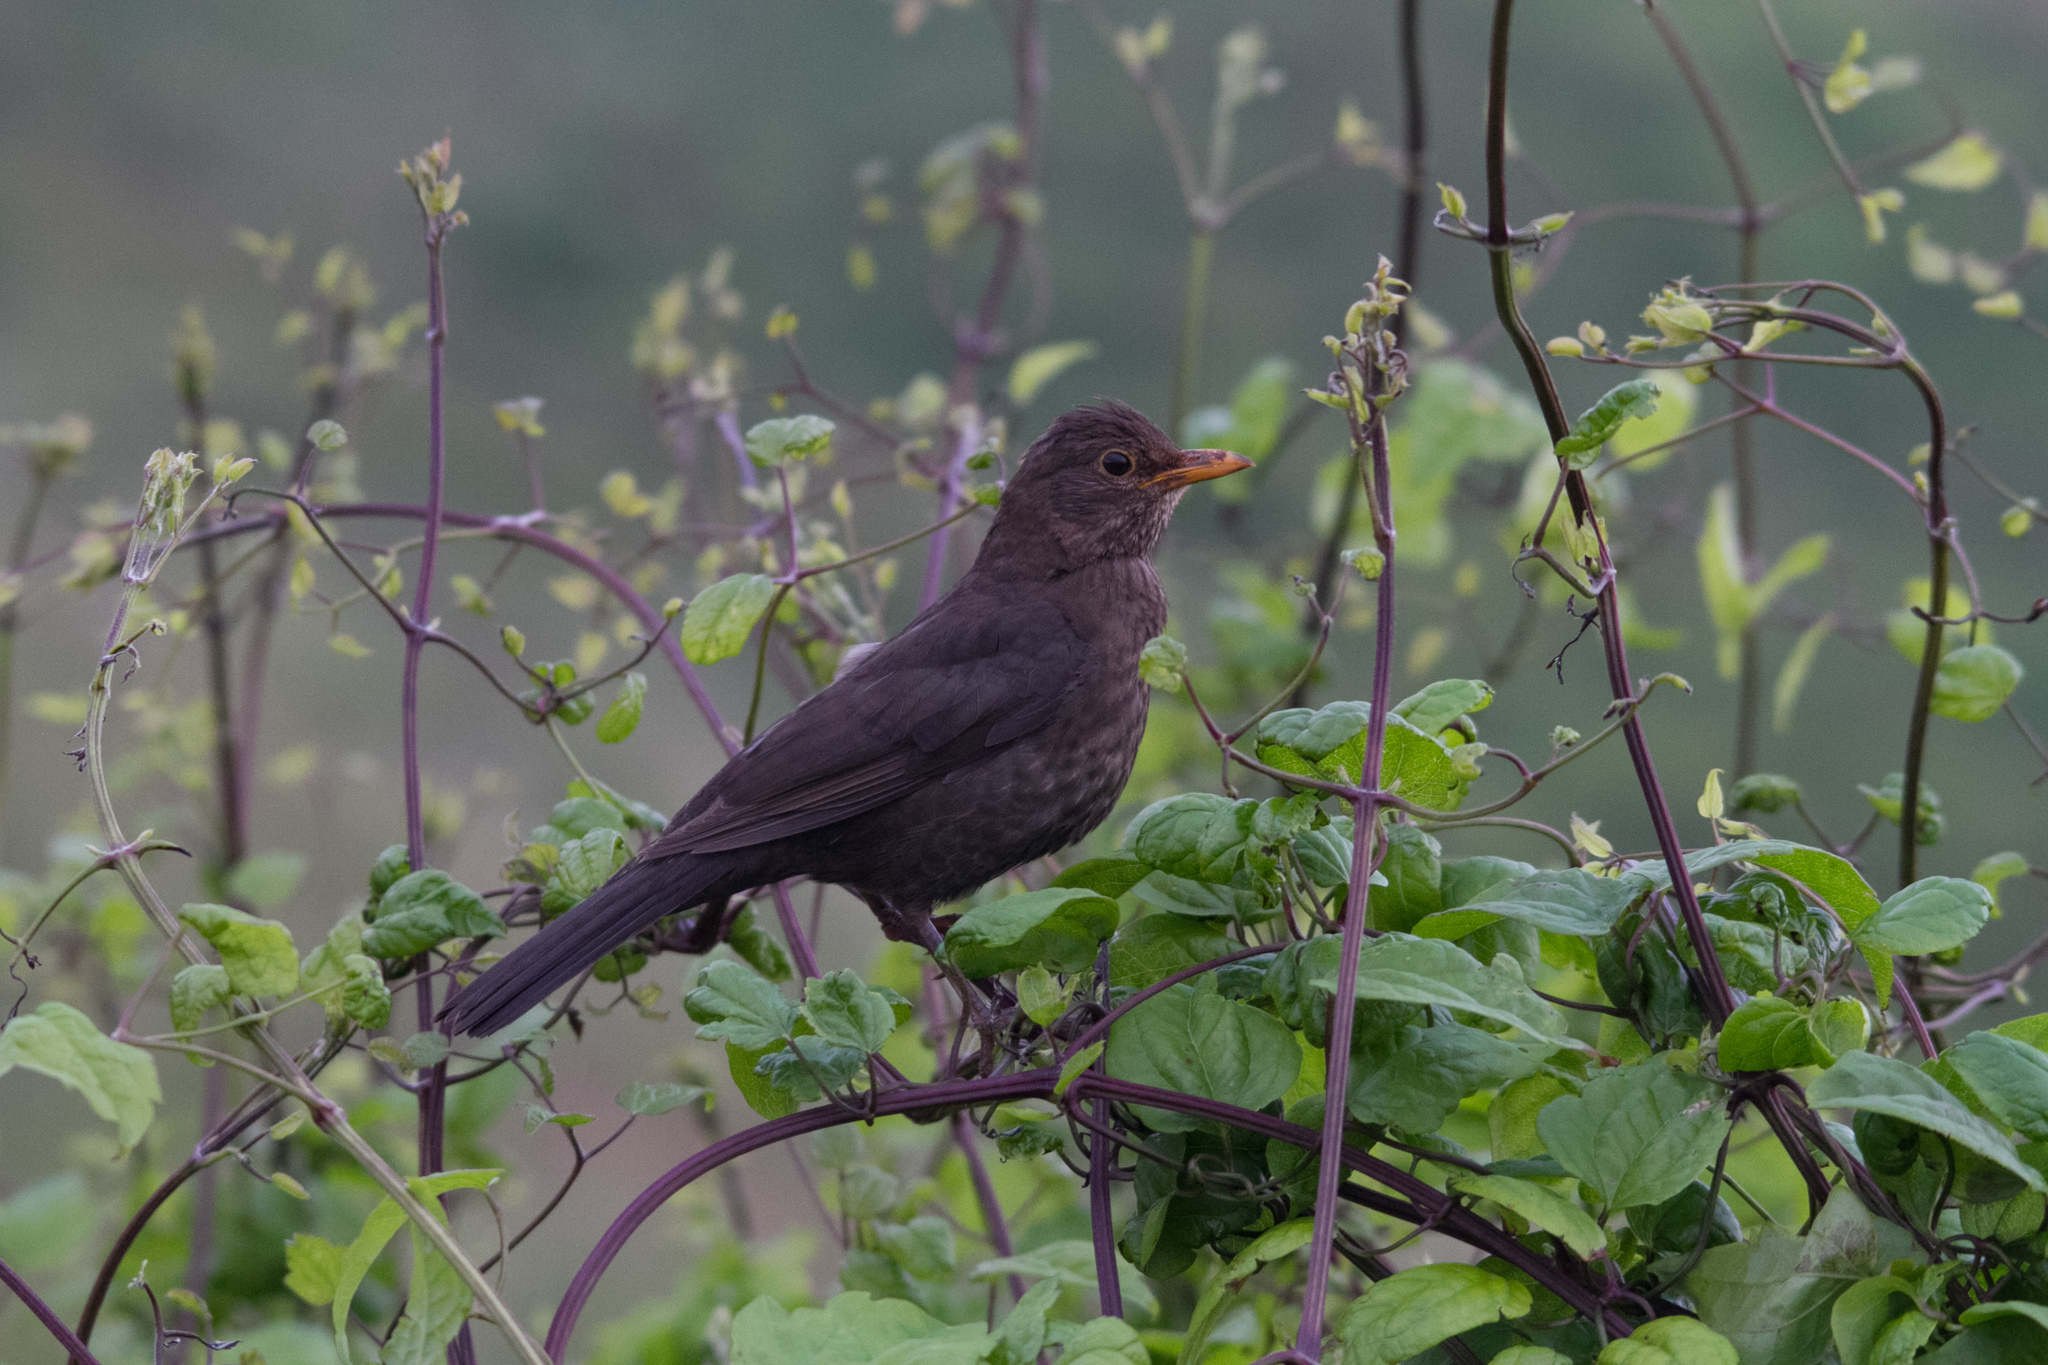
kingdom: Animalia
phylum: Chordata
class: Aves
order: Passeriformes
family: Turdidae
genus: Turdus
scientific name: Turdus merula
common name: Common blackbird
